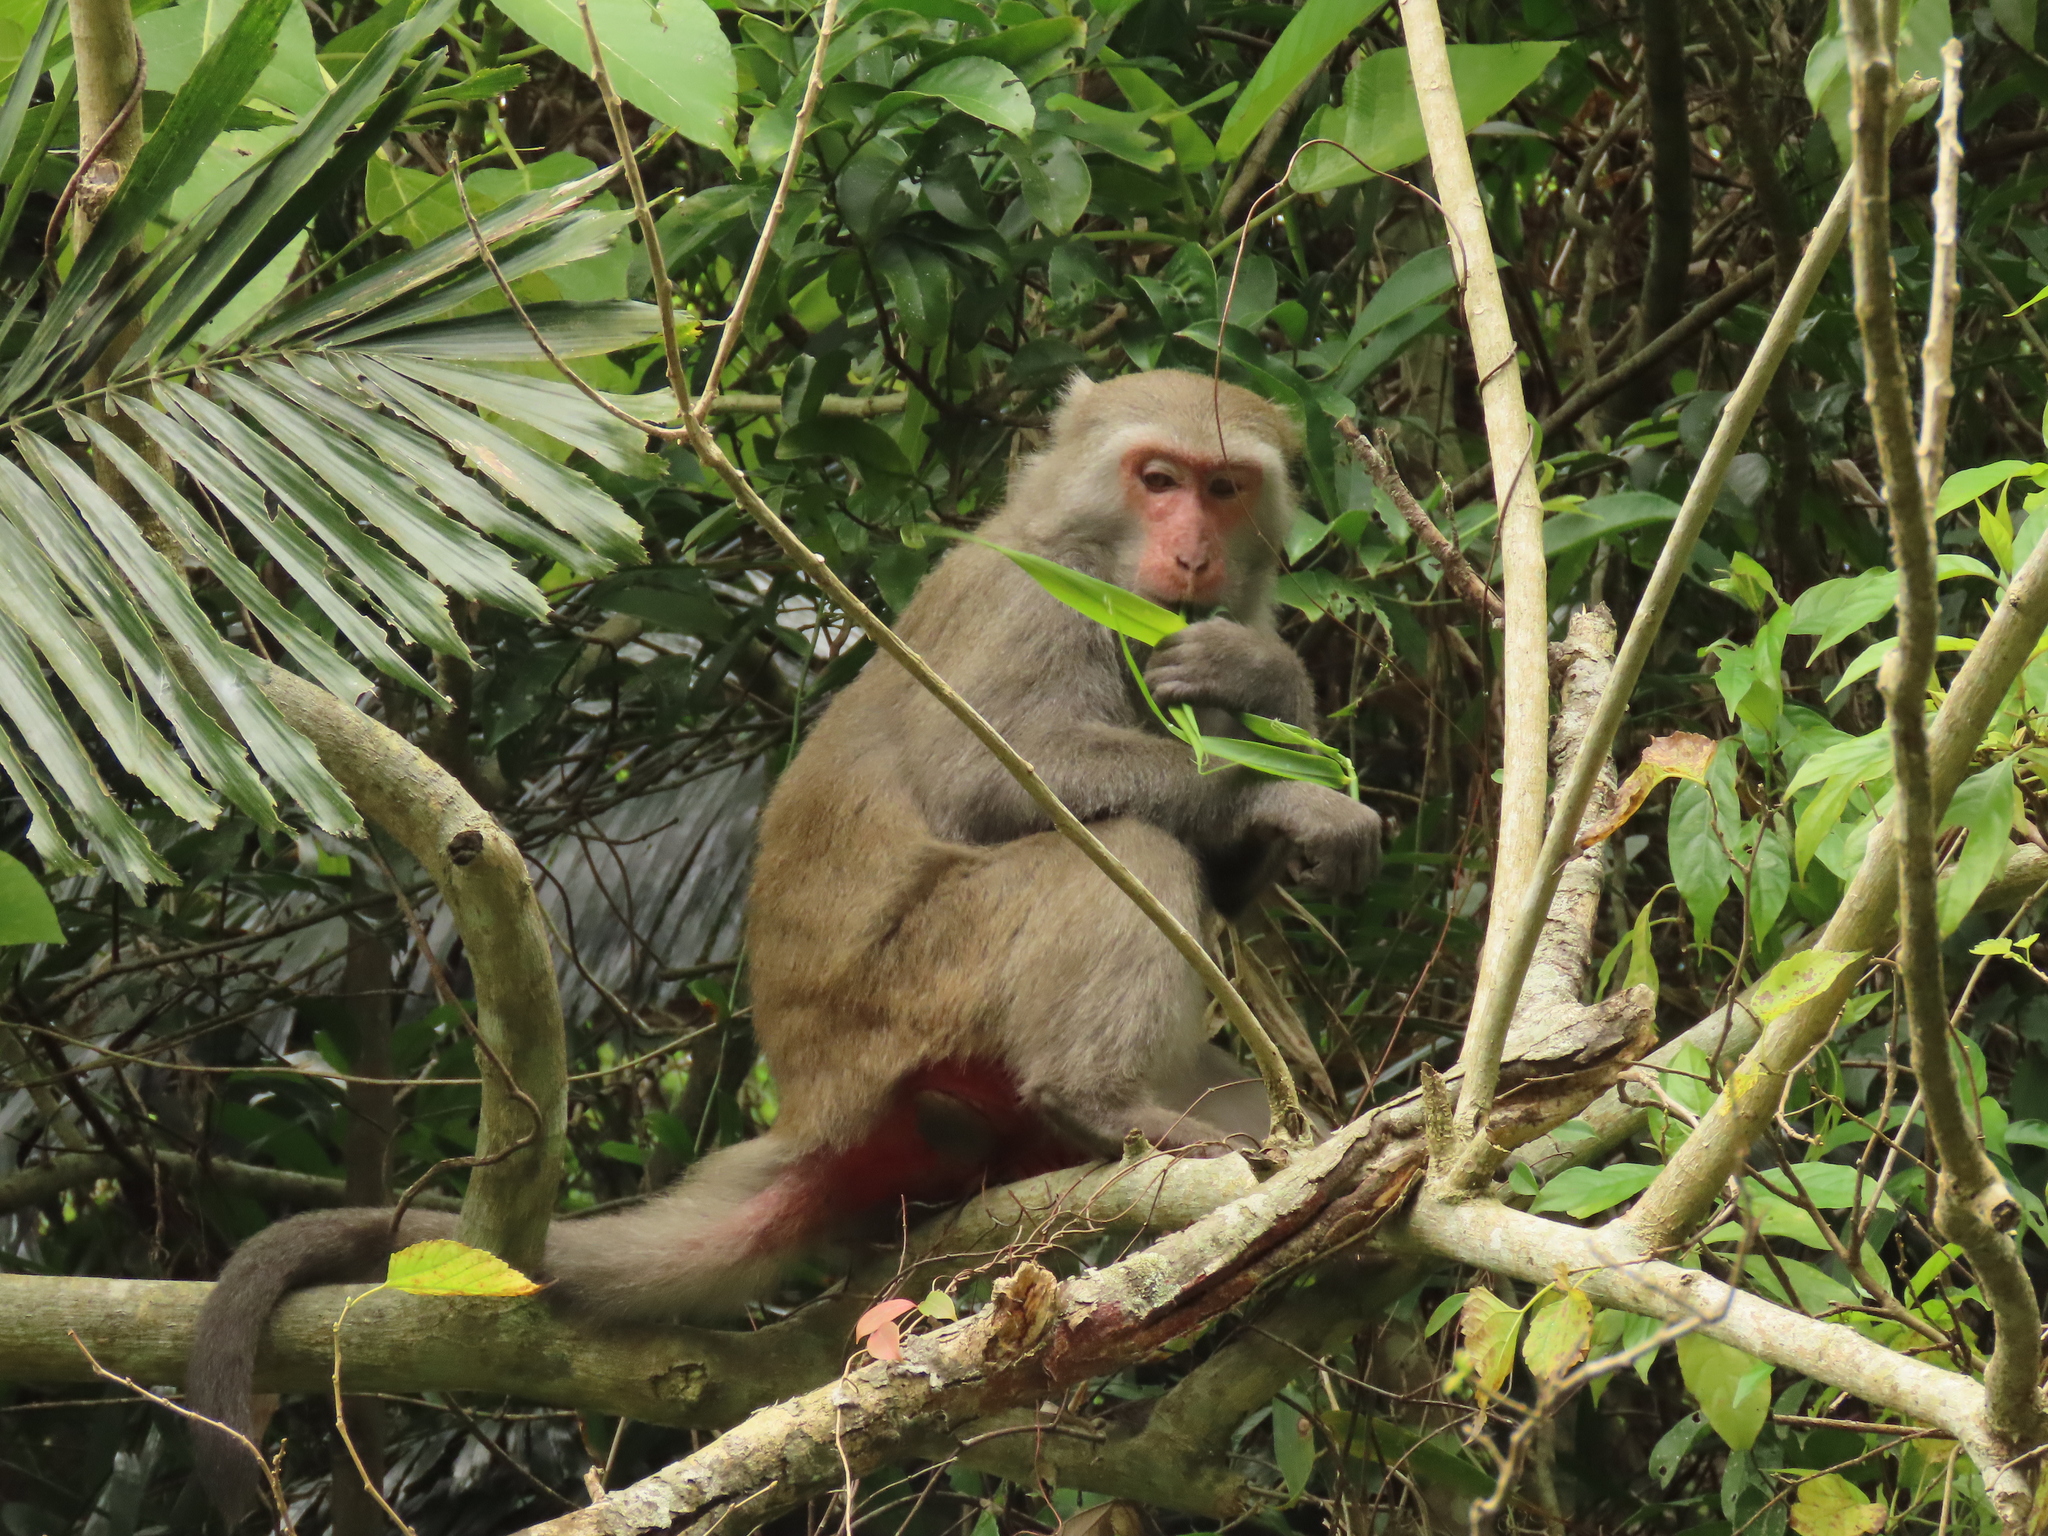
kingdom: Animalia
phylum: Chordata
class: Mammalia
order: Primates
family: Cercopithecidae
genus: Macaca
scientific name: Macaca cyclopis
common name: Formosan rock macaque
